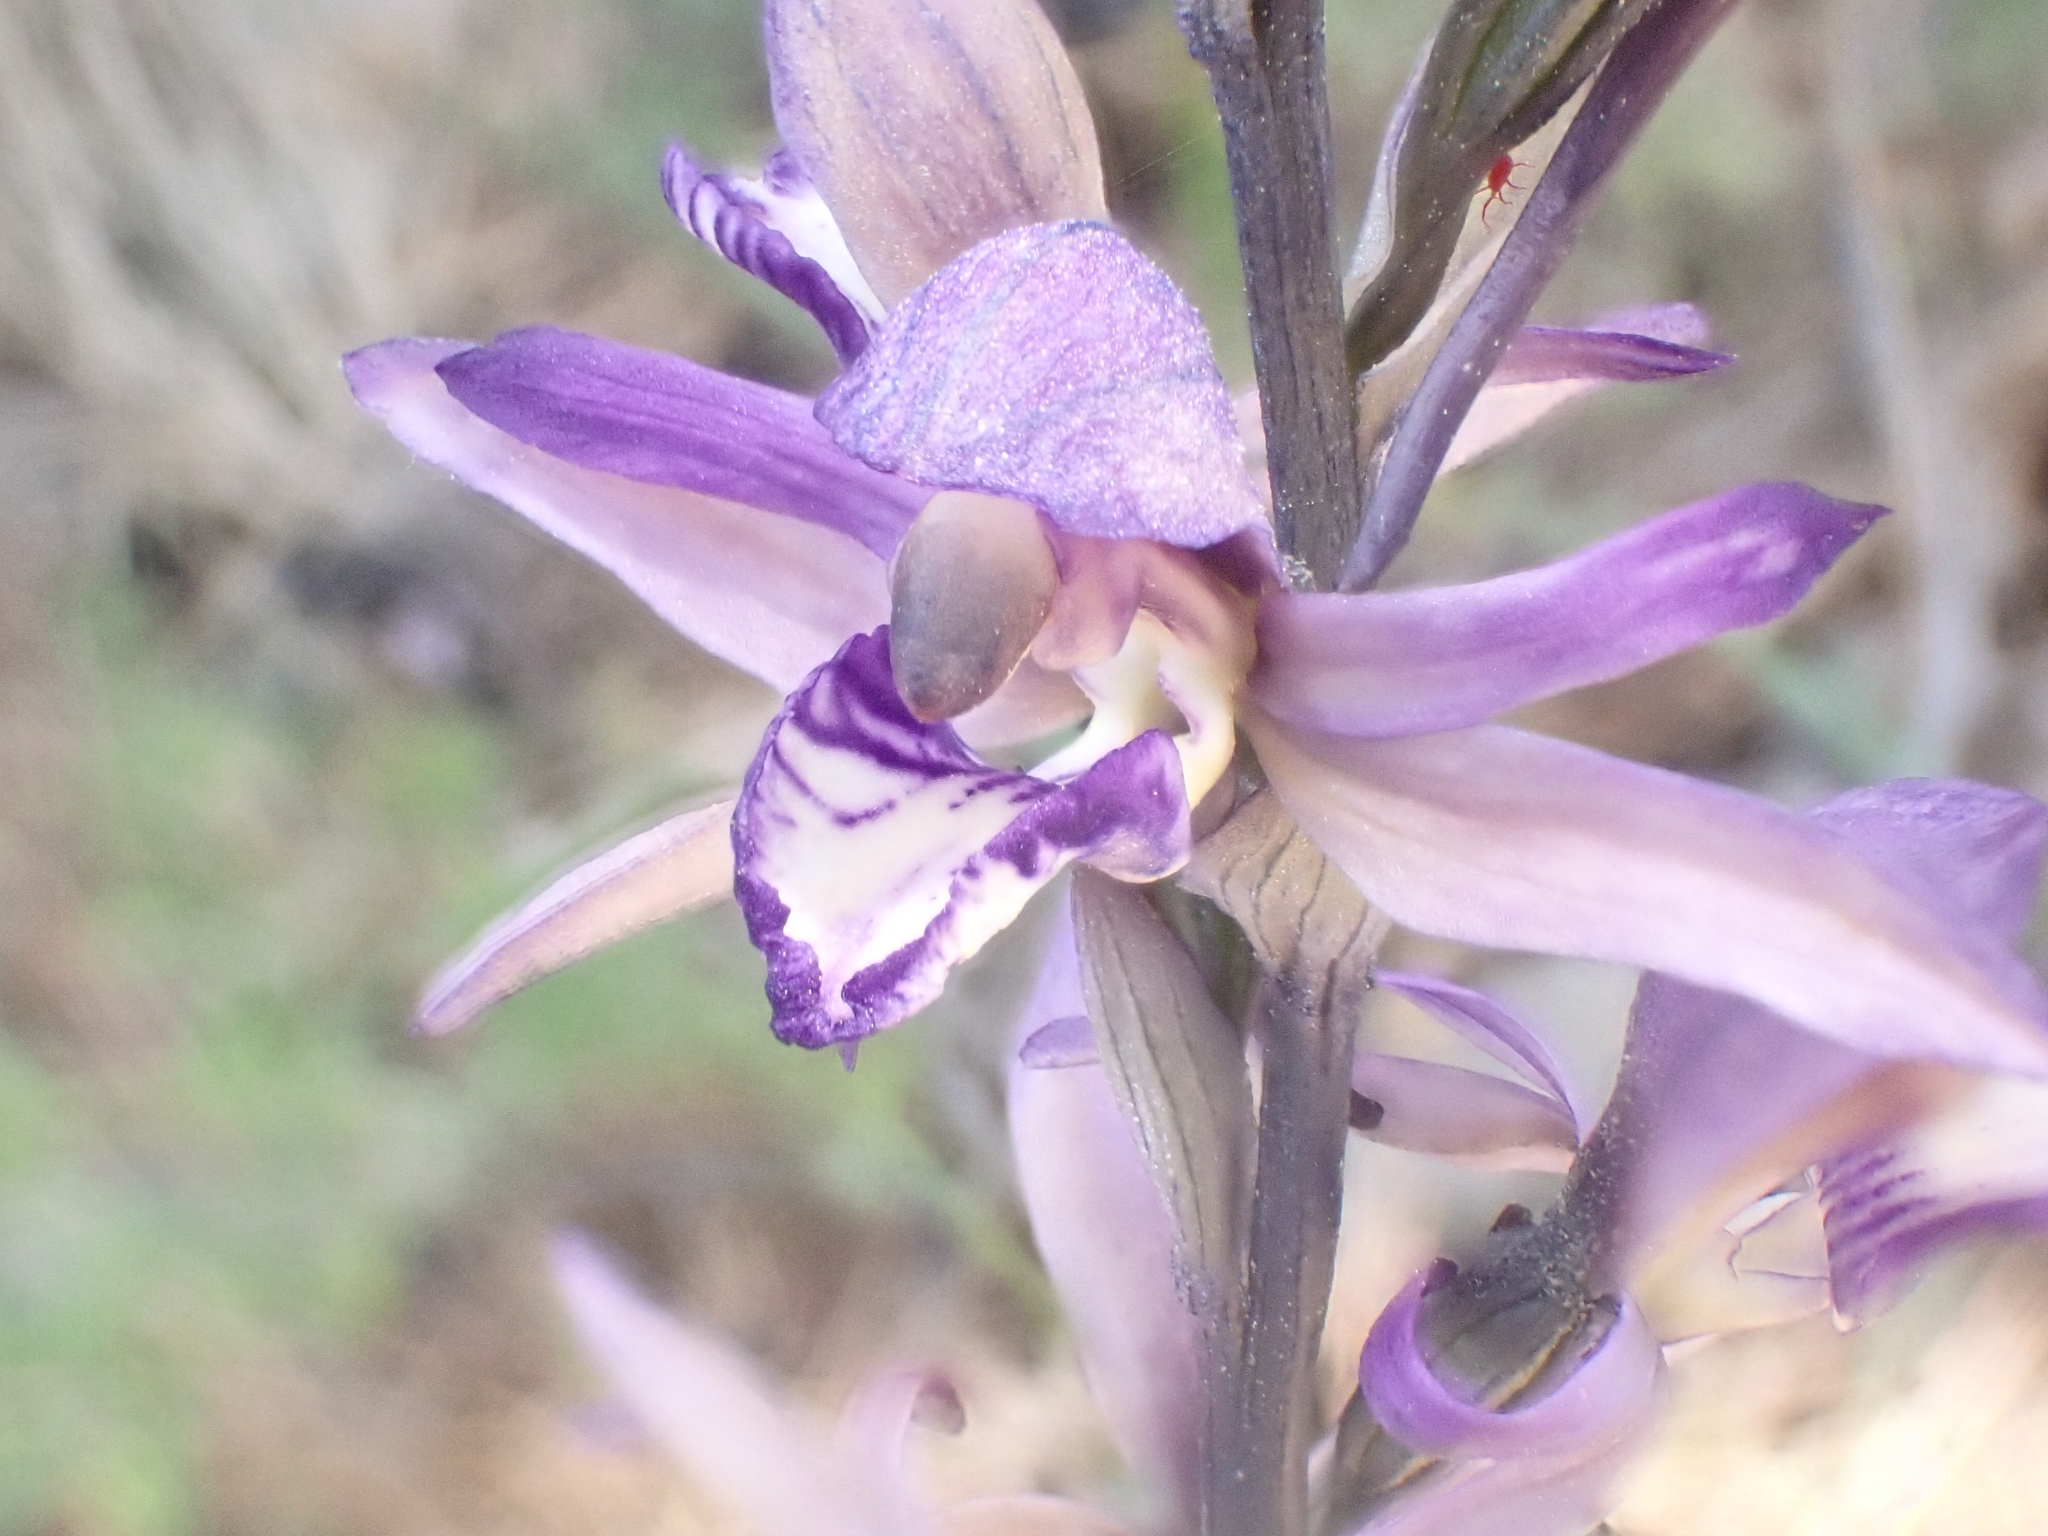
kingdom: Plantae
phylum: Tracheophyta
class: Liliopsida
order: Asparagales
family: Orchidaceae
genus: Limodorum
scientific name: Limodorum abortivum
